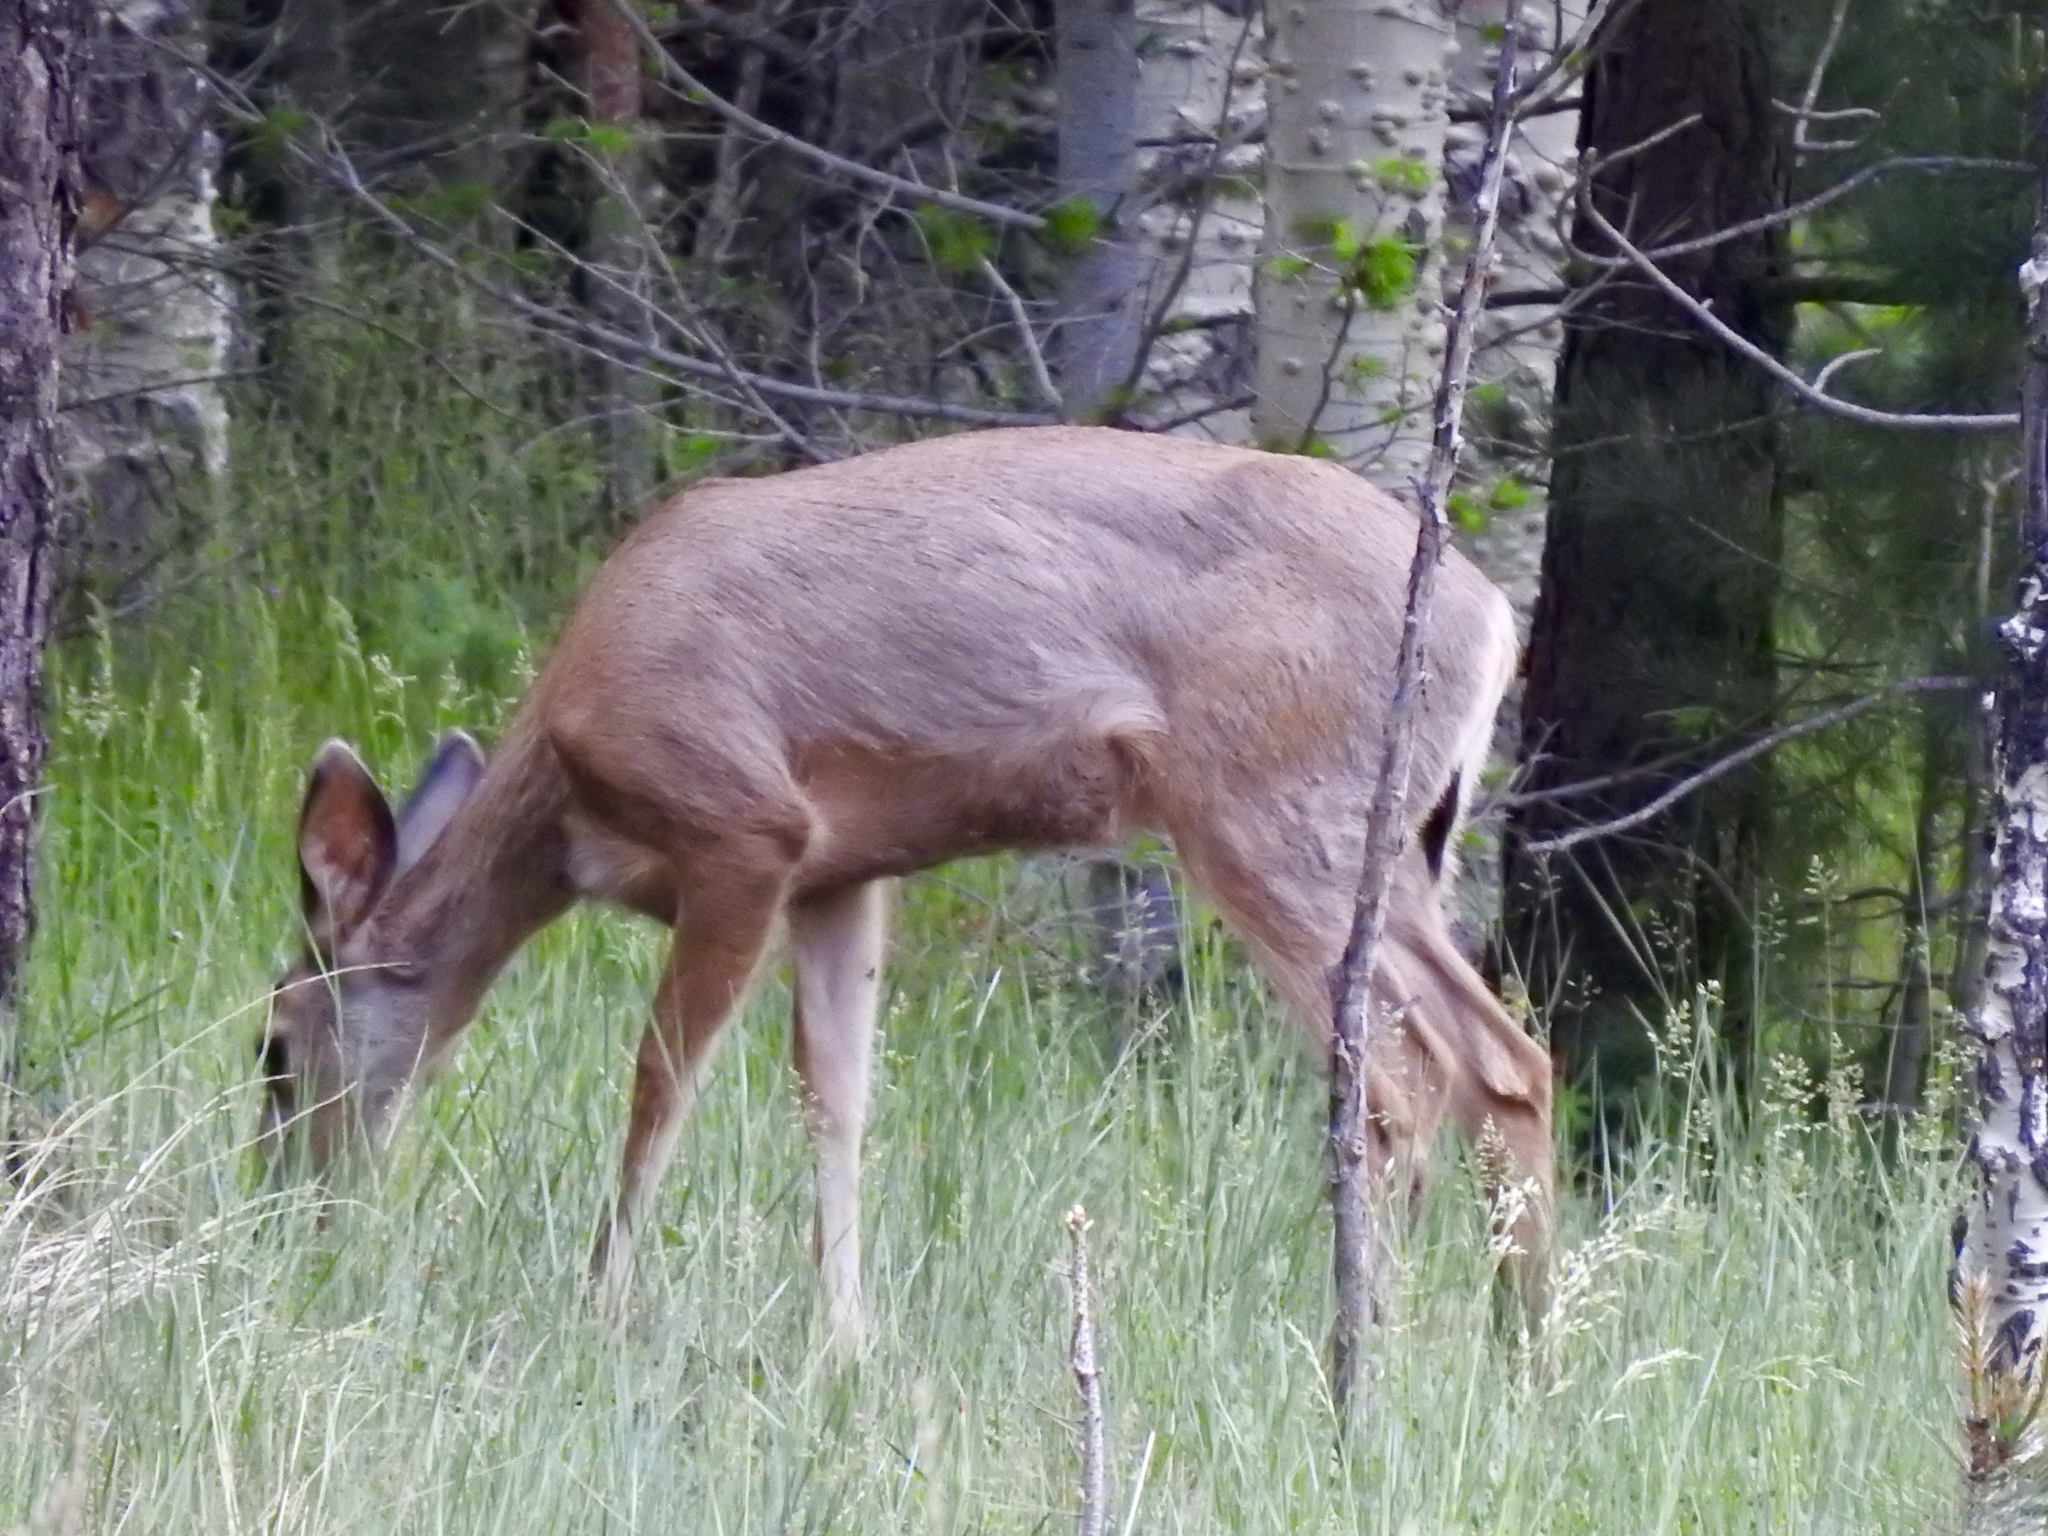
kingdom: Animalia
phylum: Chordata
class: Mammalia
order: Artiodactyla
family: Cervidae
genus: Odocoileus
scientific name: Odocoileus hemionus
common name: Mule deer
